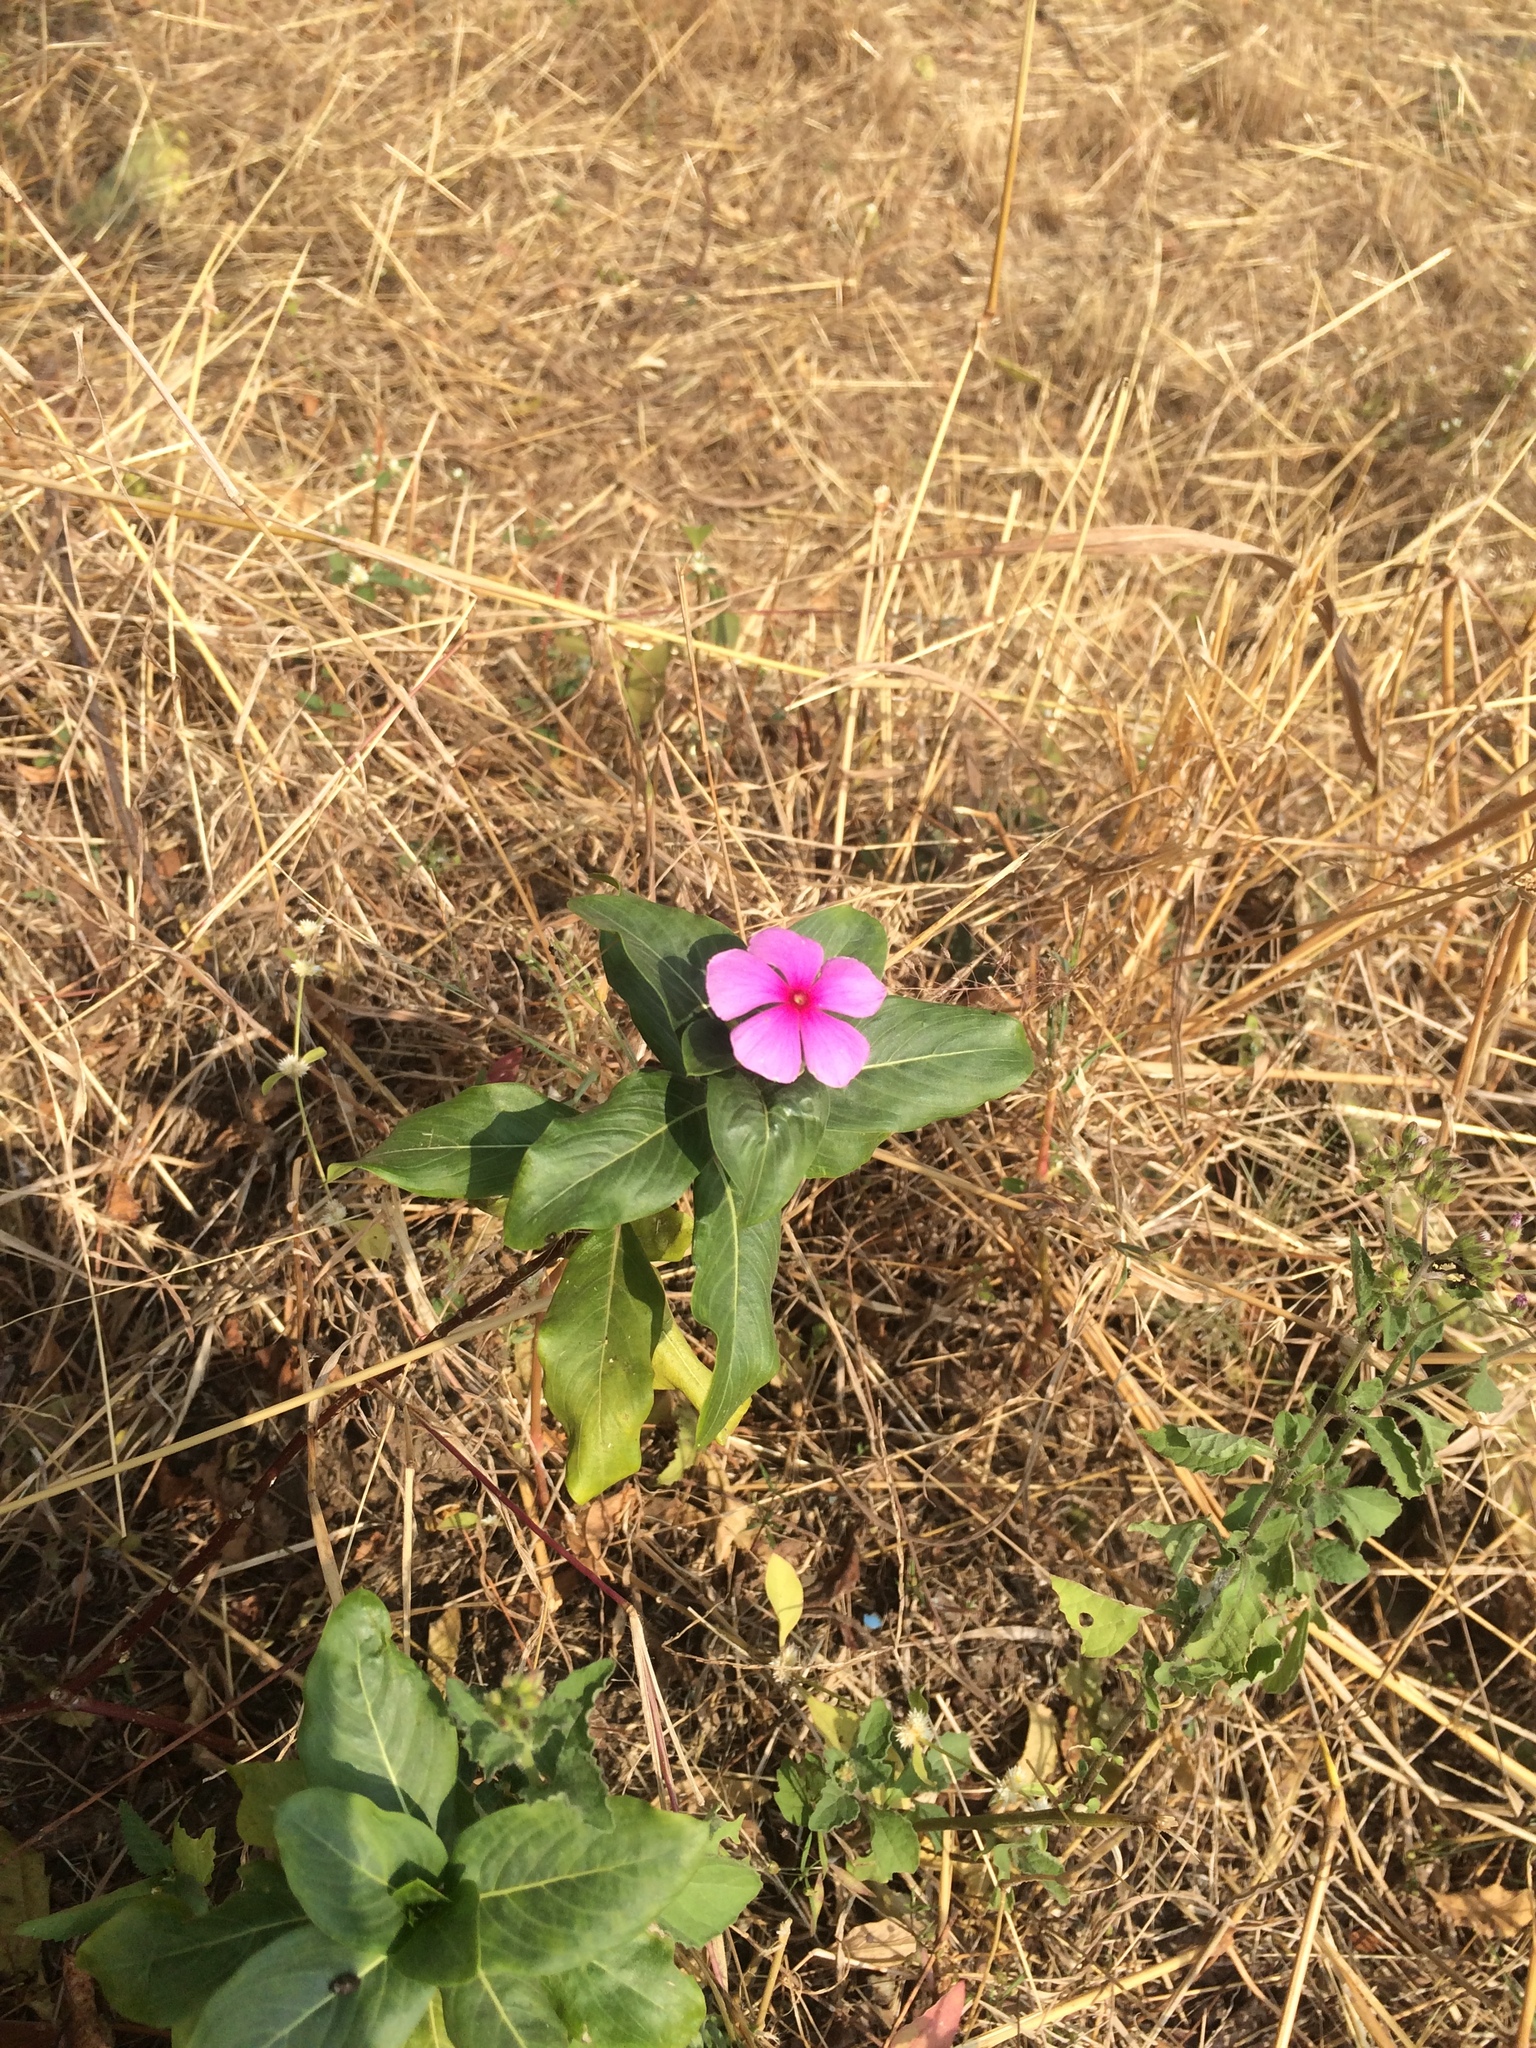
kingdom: Plantae
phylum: Tracheophyta
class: Magnoliopsida
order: Gentianales
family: Apocynaceae
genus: Catharanthus
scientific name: Catharanthus roseus
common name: Madagascar periwinkle
